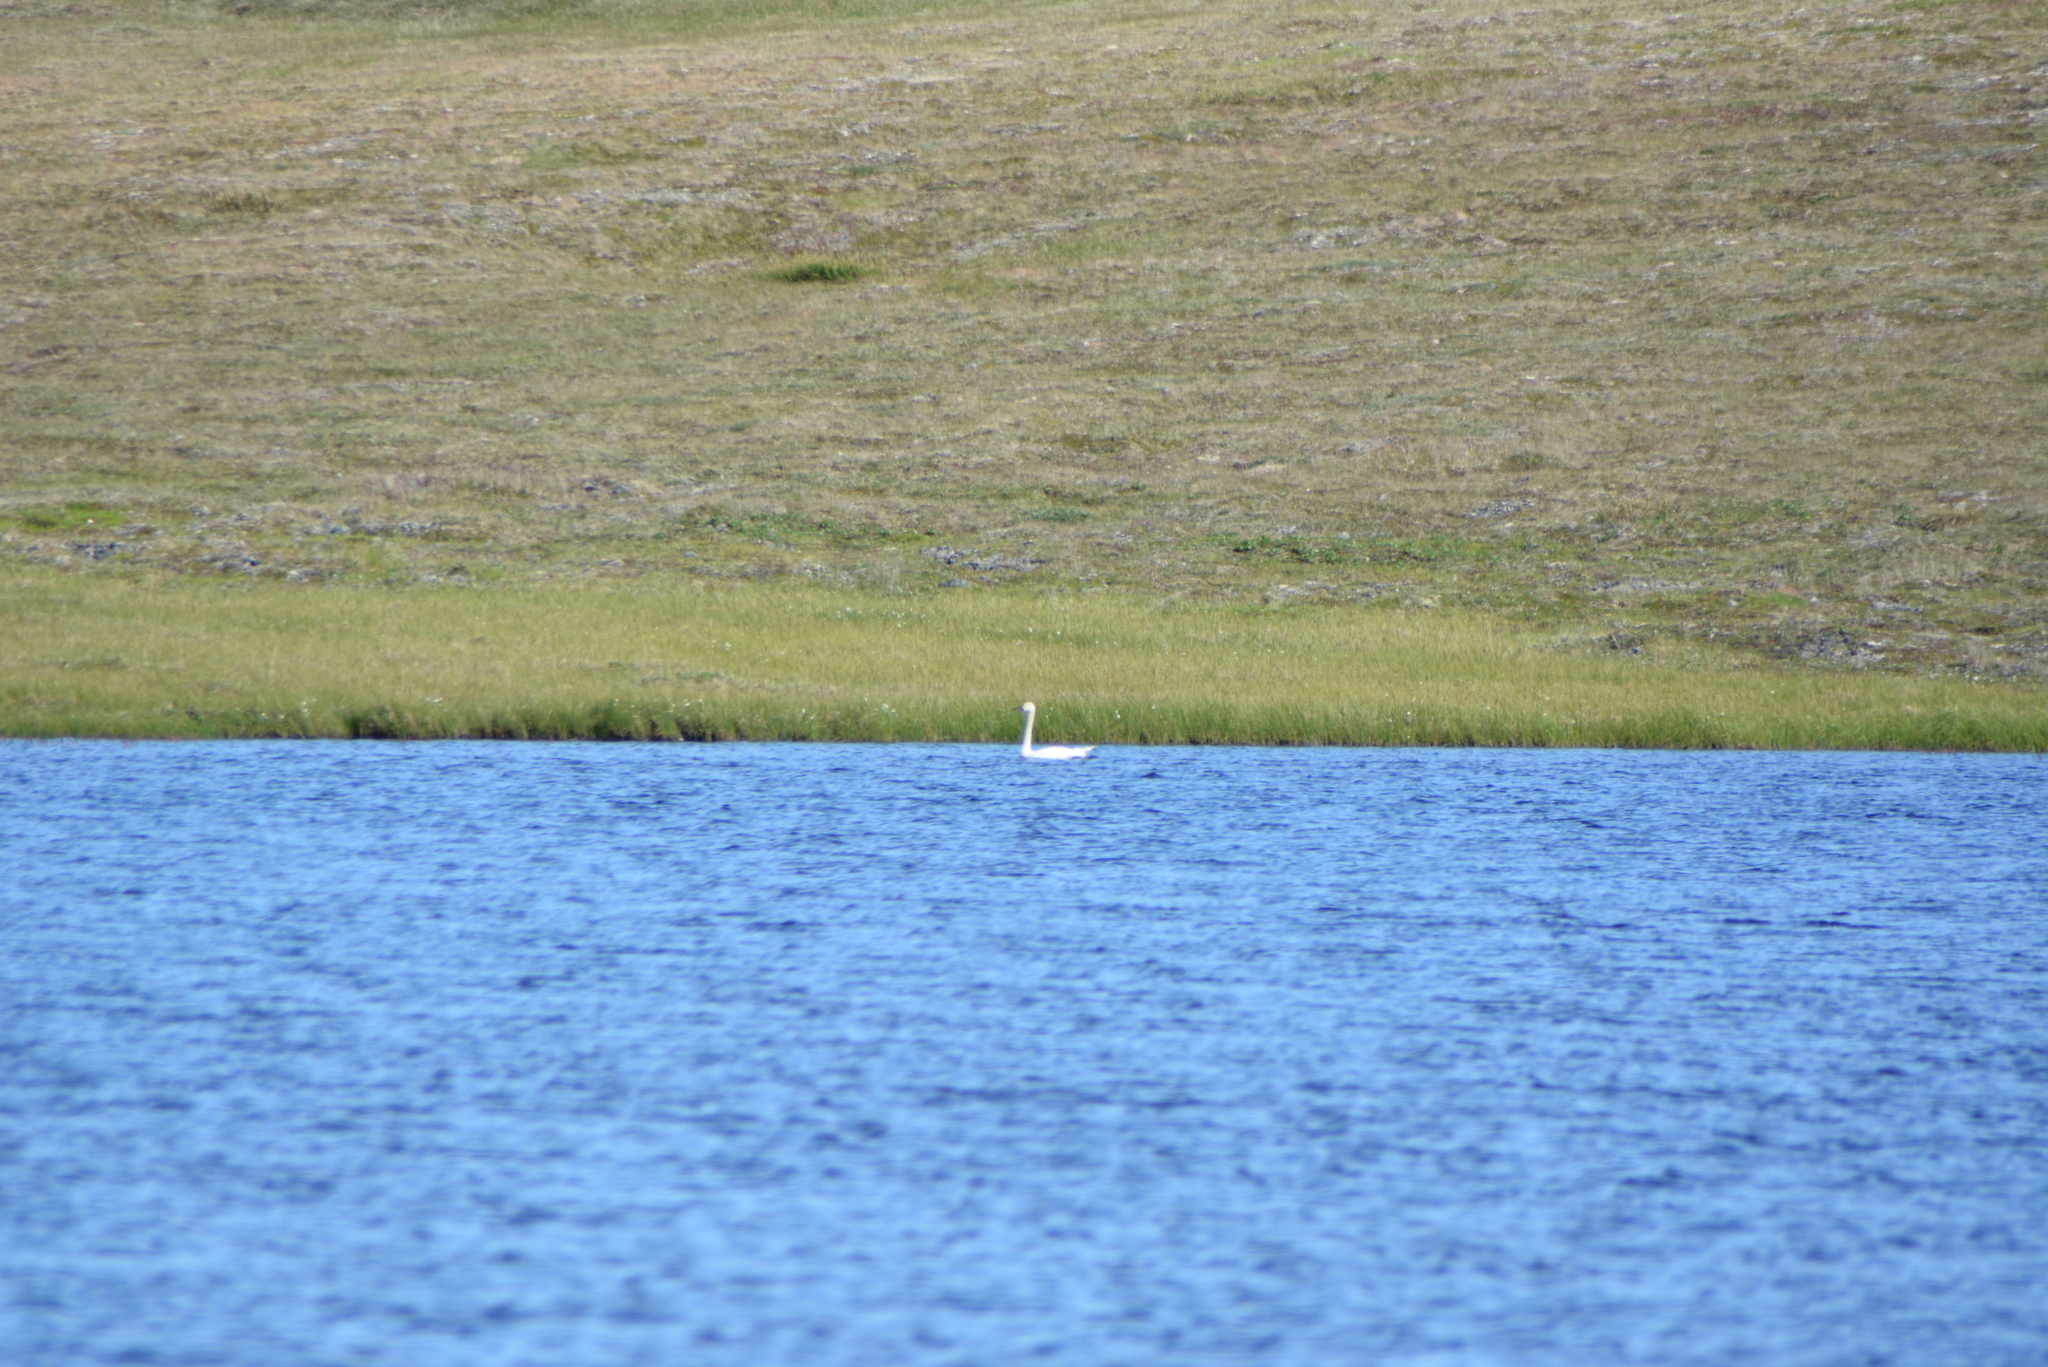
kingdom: Animalia
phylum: Chordata
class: Aves
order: Anseriformes
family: Anatidae
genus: Cygnus
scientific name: Cygnus columbianus
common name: Tundra swan
